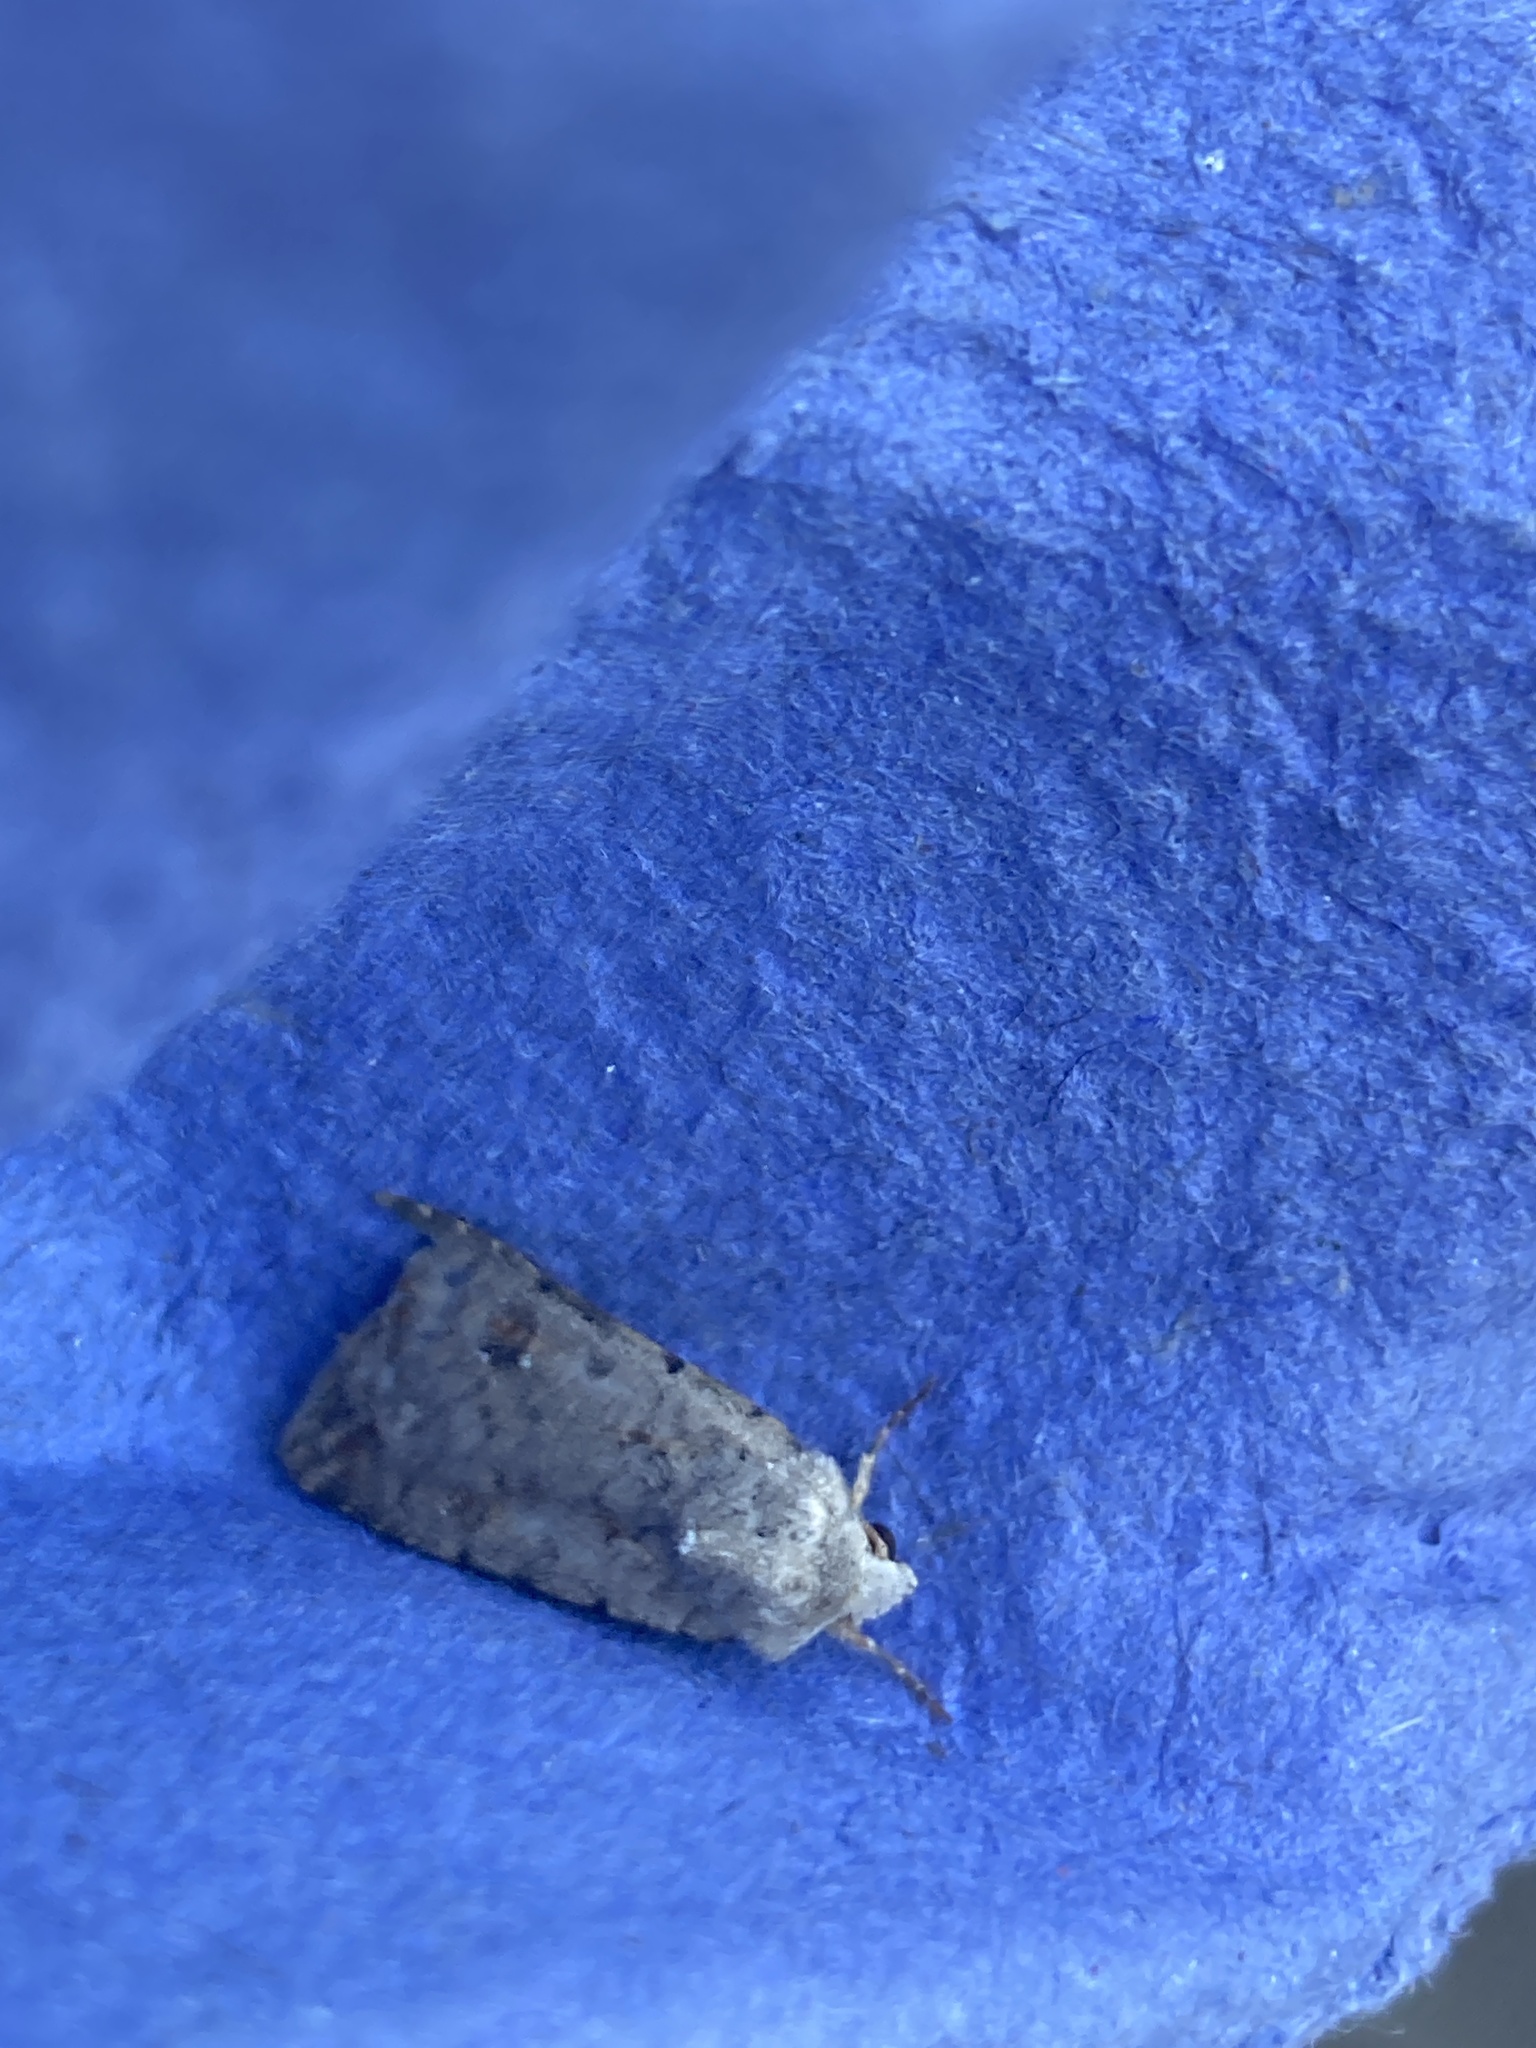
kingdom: Animalia
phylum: Arthropoda
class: Insecta
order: Lepidoptera
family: Noctuidae
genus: Caradrina
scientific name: Caradrina clavipalpis
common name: Pale mottled willow
